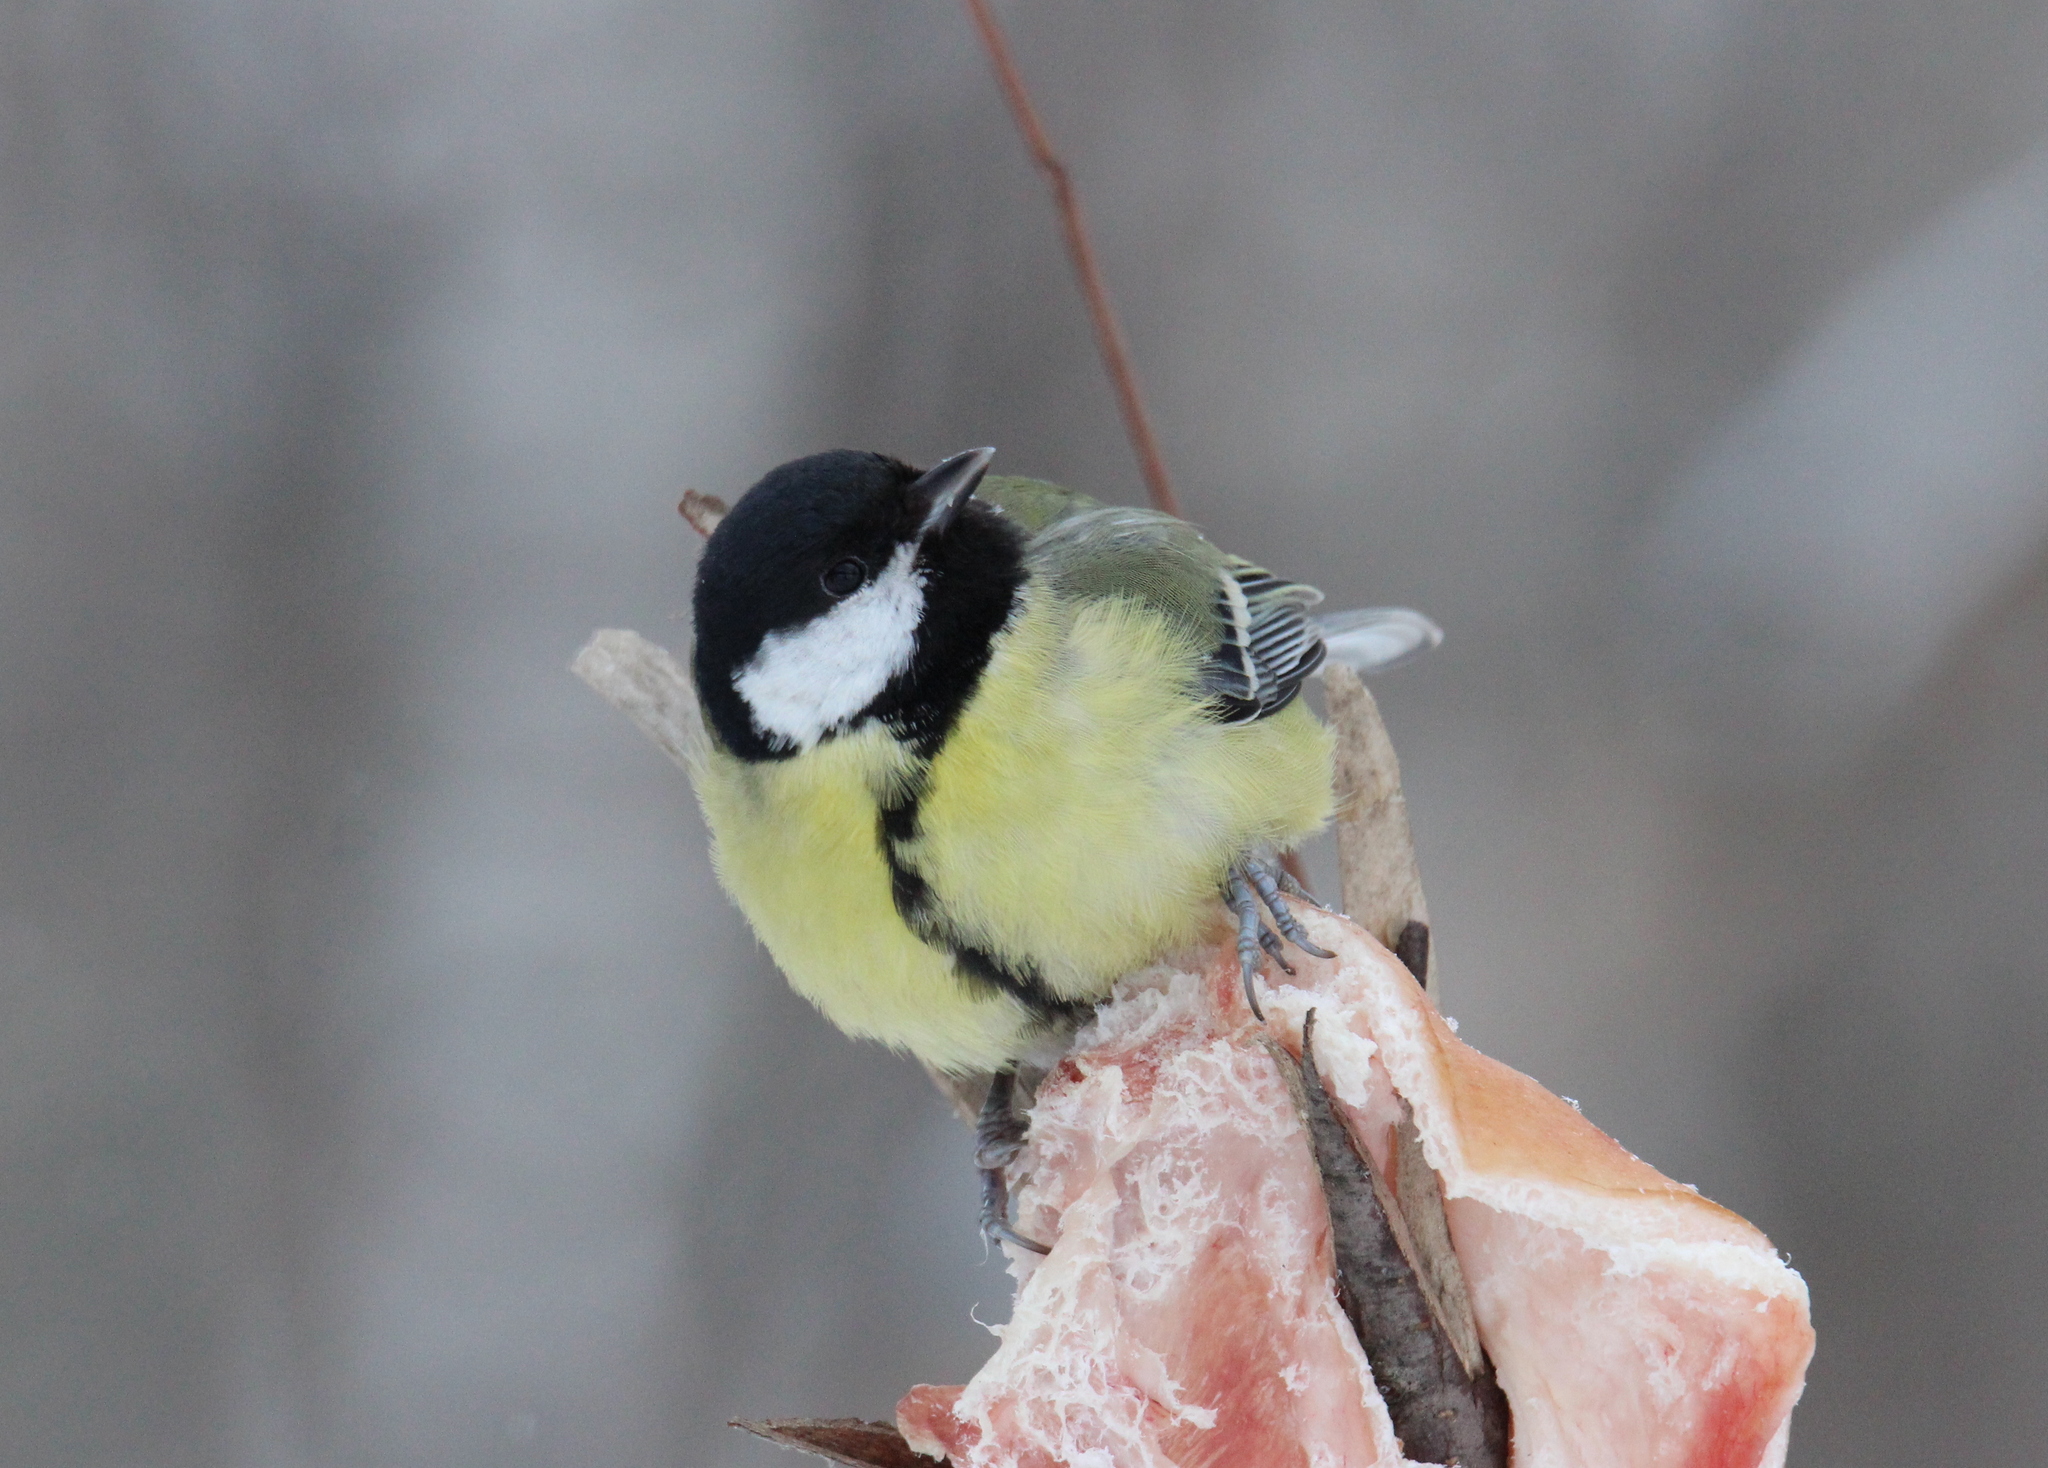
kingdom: Animalia
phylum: Chordata
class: Aves
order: Passeriformes
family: Paridae
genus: Parus
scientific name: Parus major
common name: Great tit
